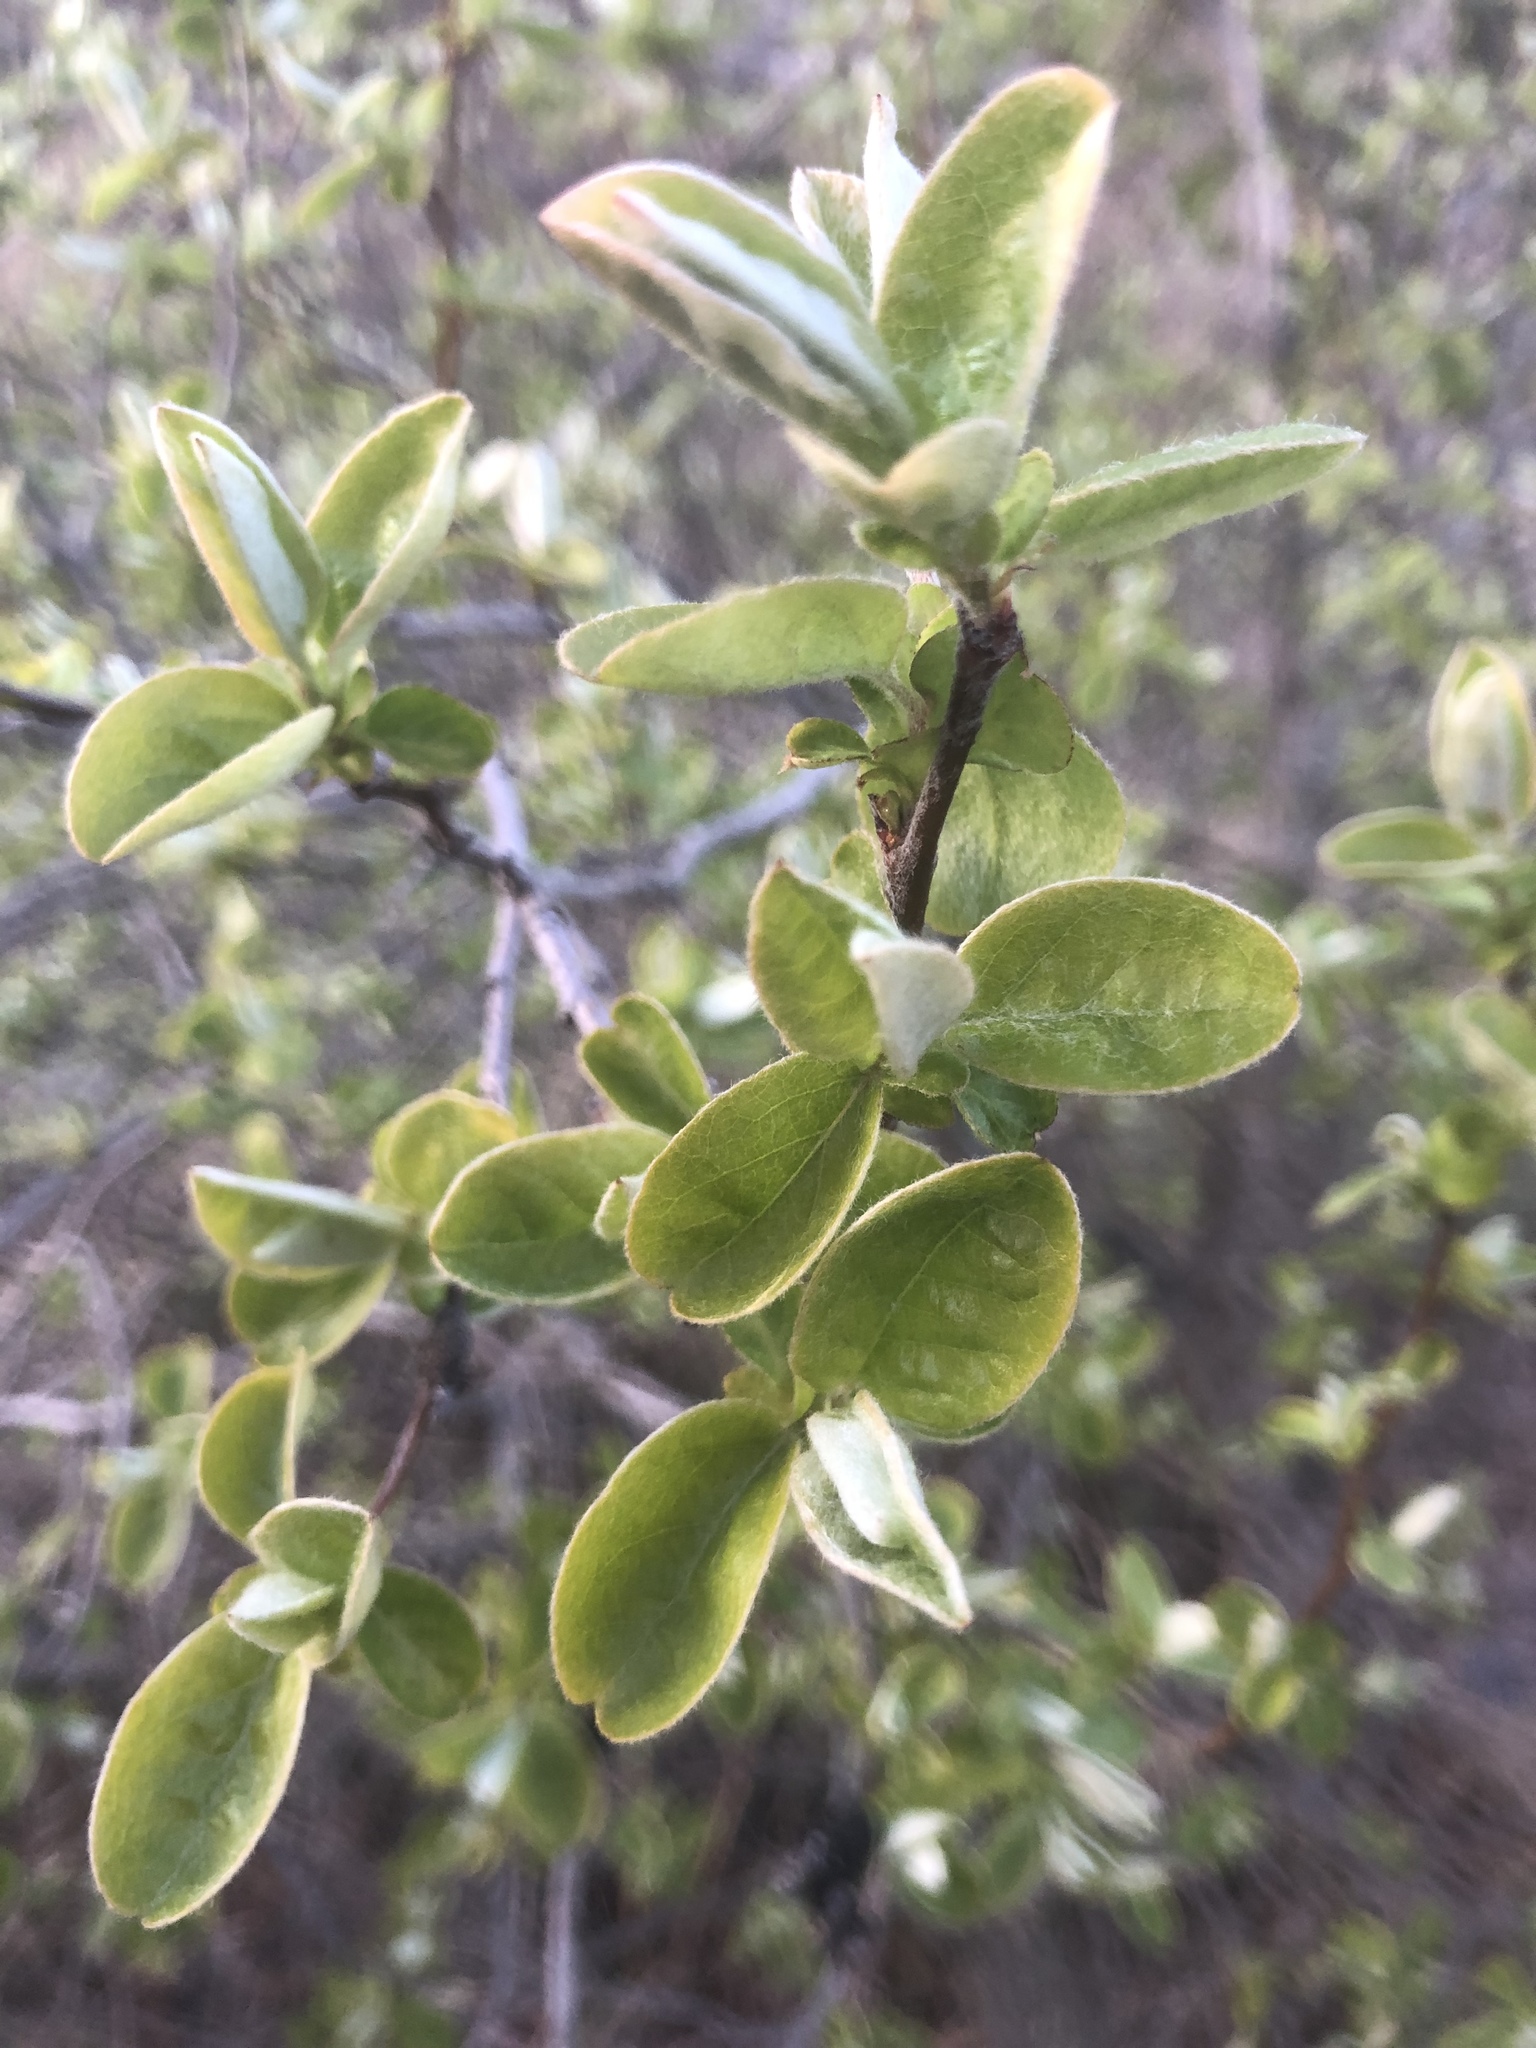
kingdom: Plantae
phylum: Tracheophyta
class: Magnoliopsida
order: Rosales
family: Rosaceae
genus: Cydonia
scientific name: Cydonia oblonga
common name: Quince
